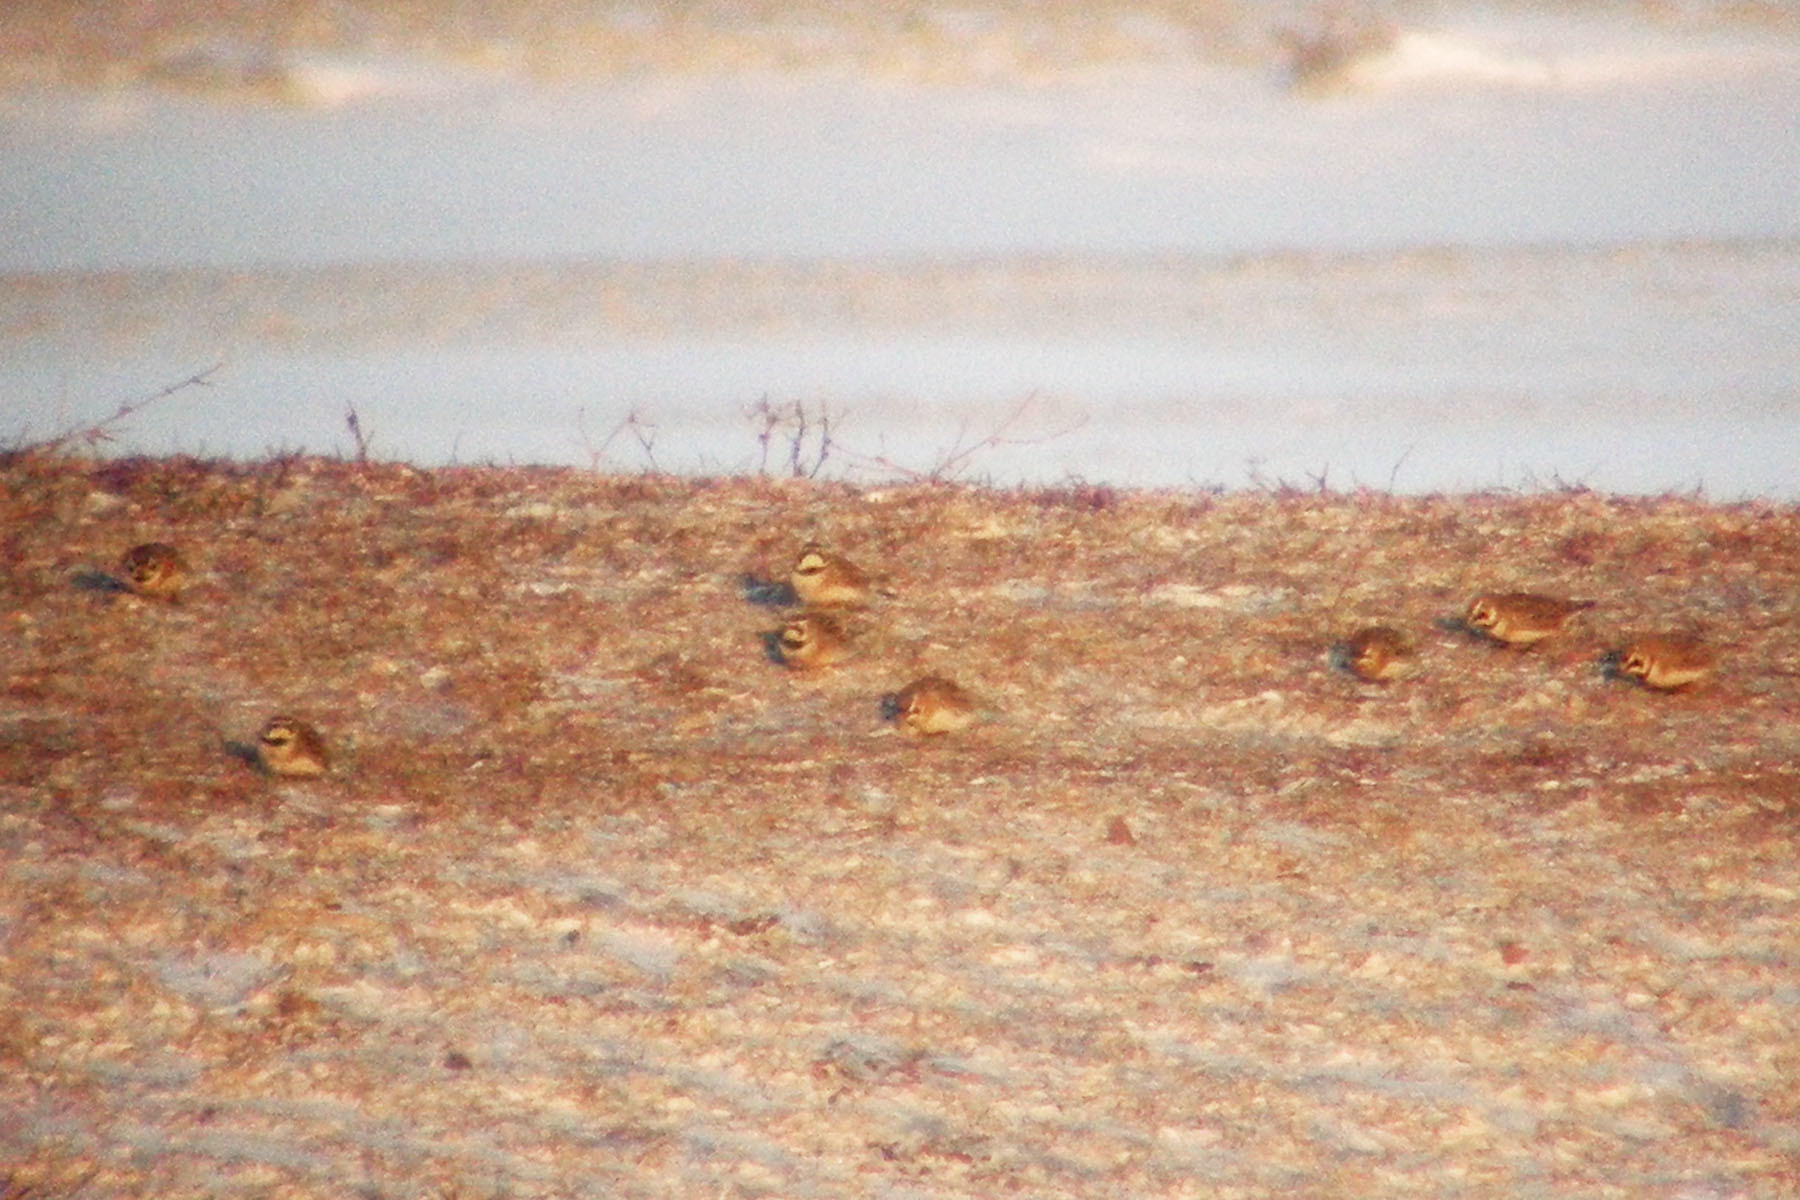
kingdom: Animalia
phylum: Chordata
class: Aves
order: Passeriformes
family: Alaudidae
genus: Eremophila
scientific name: Eremophila alpestris
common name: Horned lark
